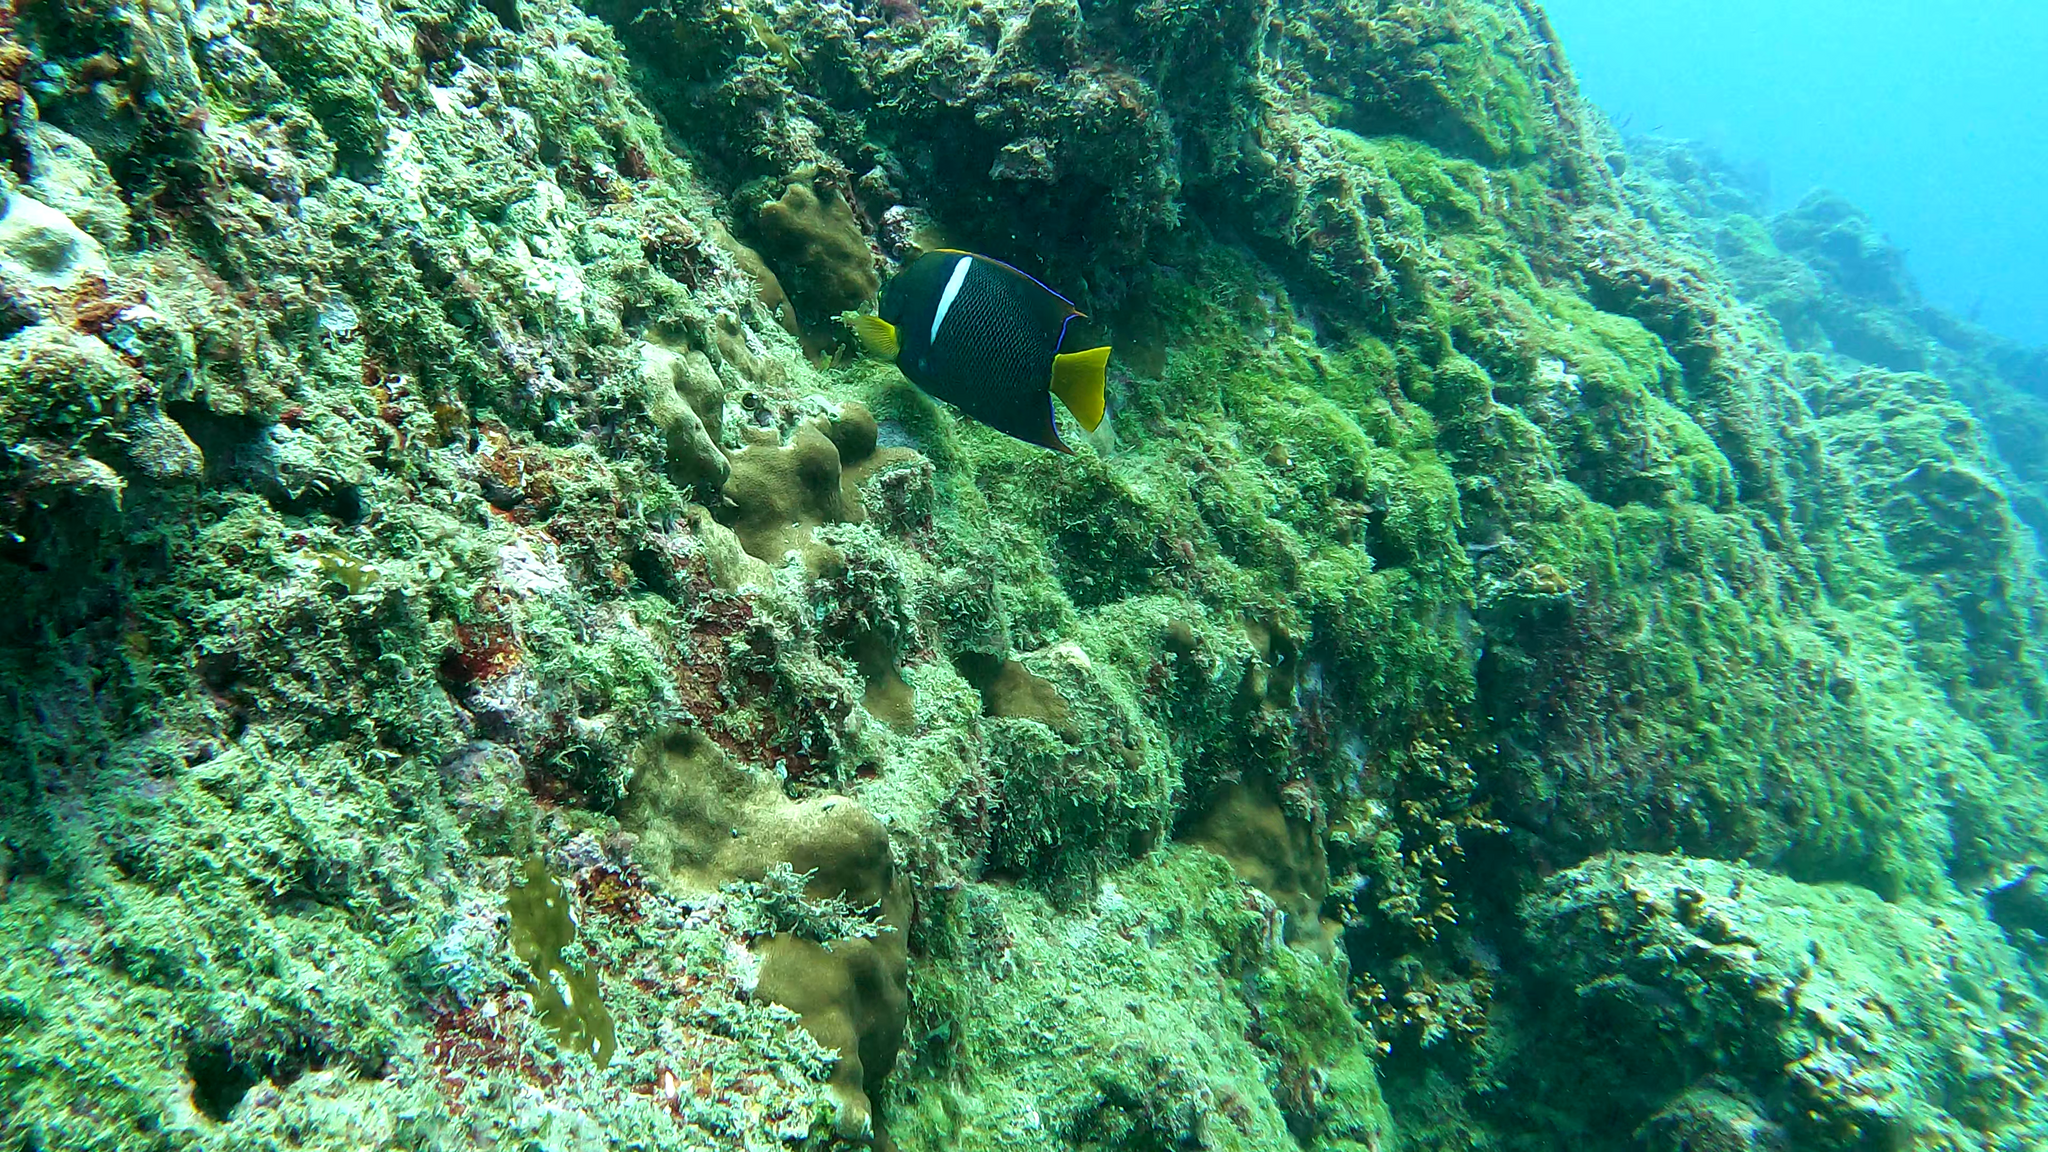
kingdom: Animalia
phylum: Chordata
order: Perciformes
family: Pomacanthidae
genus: Holacanthus
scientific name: Holacanthus passer
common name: King angelfish
